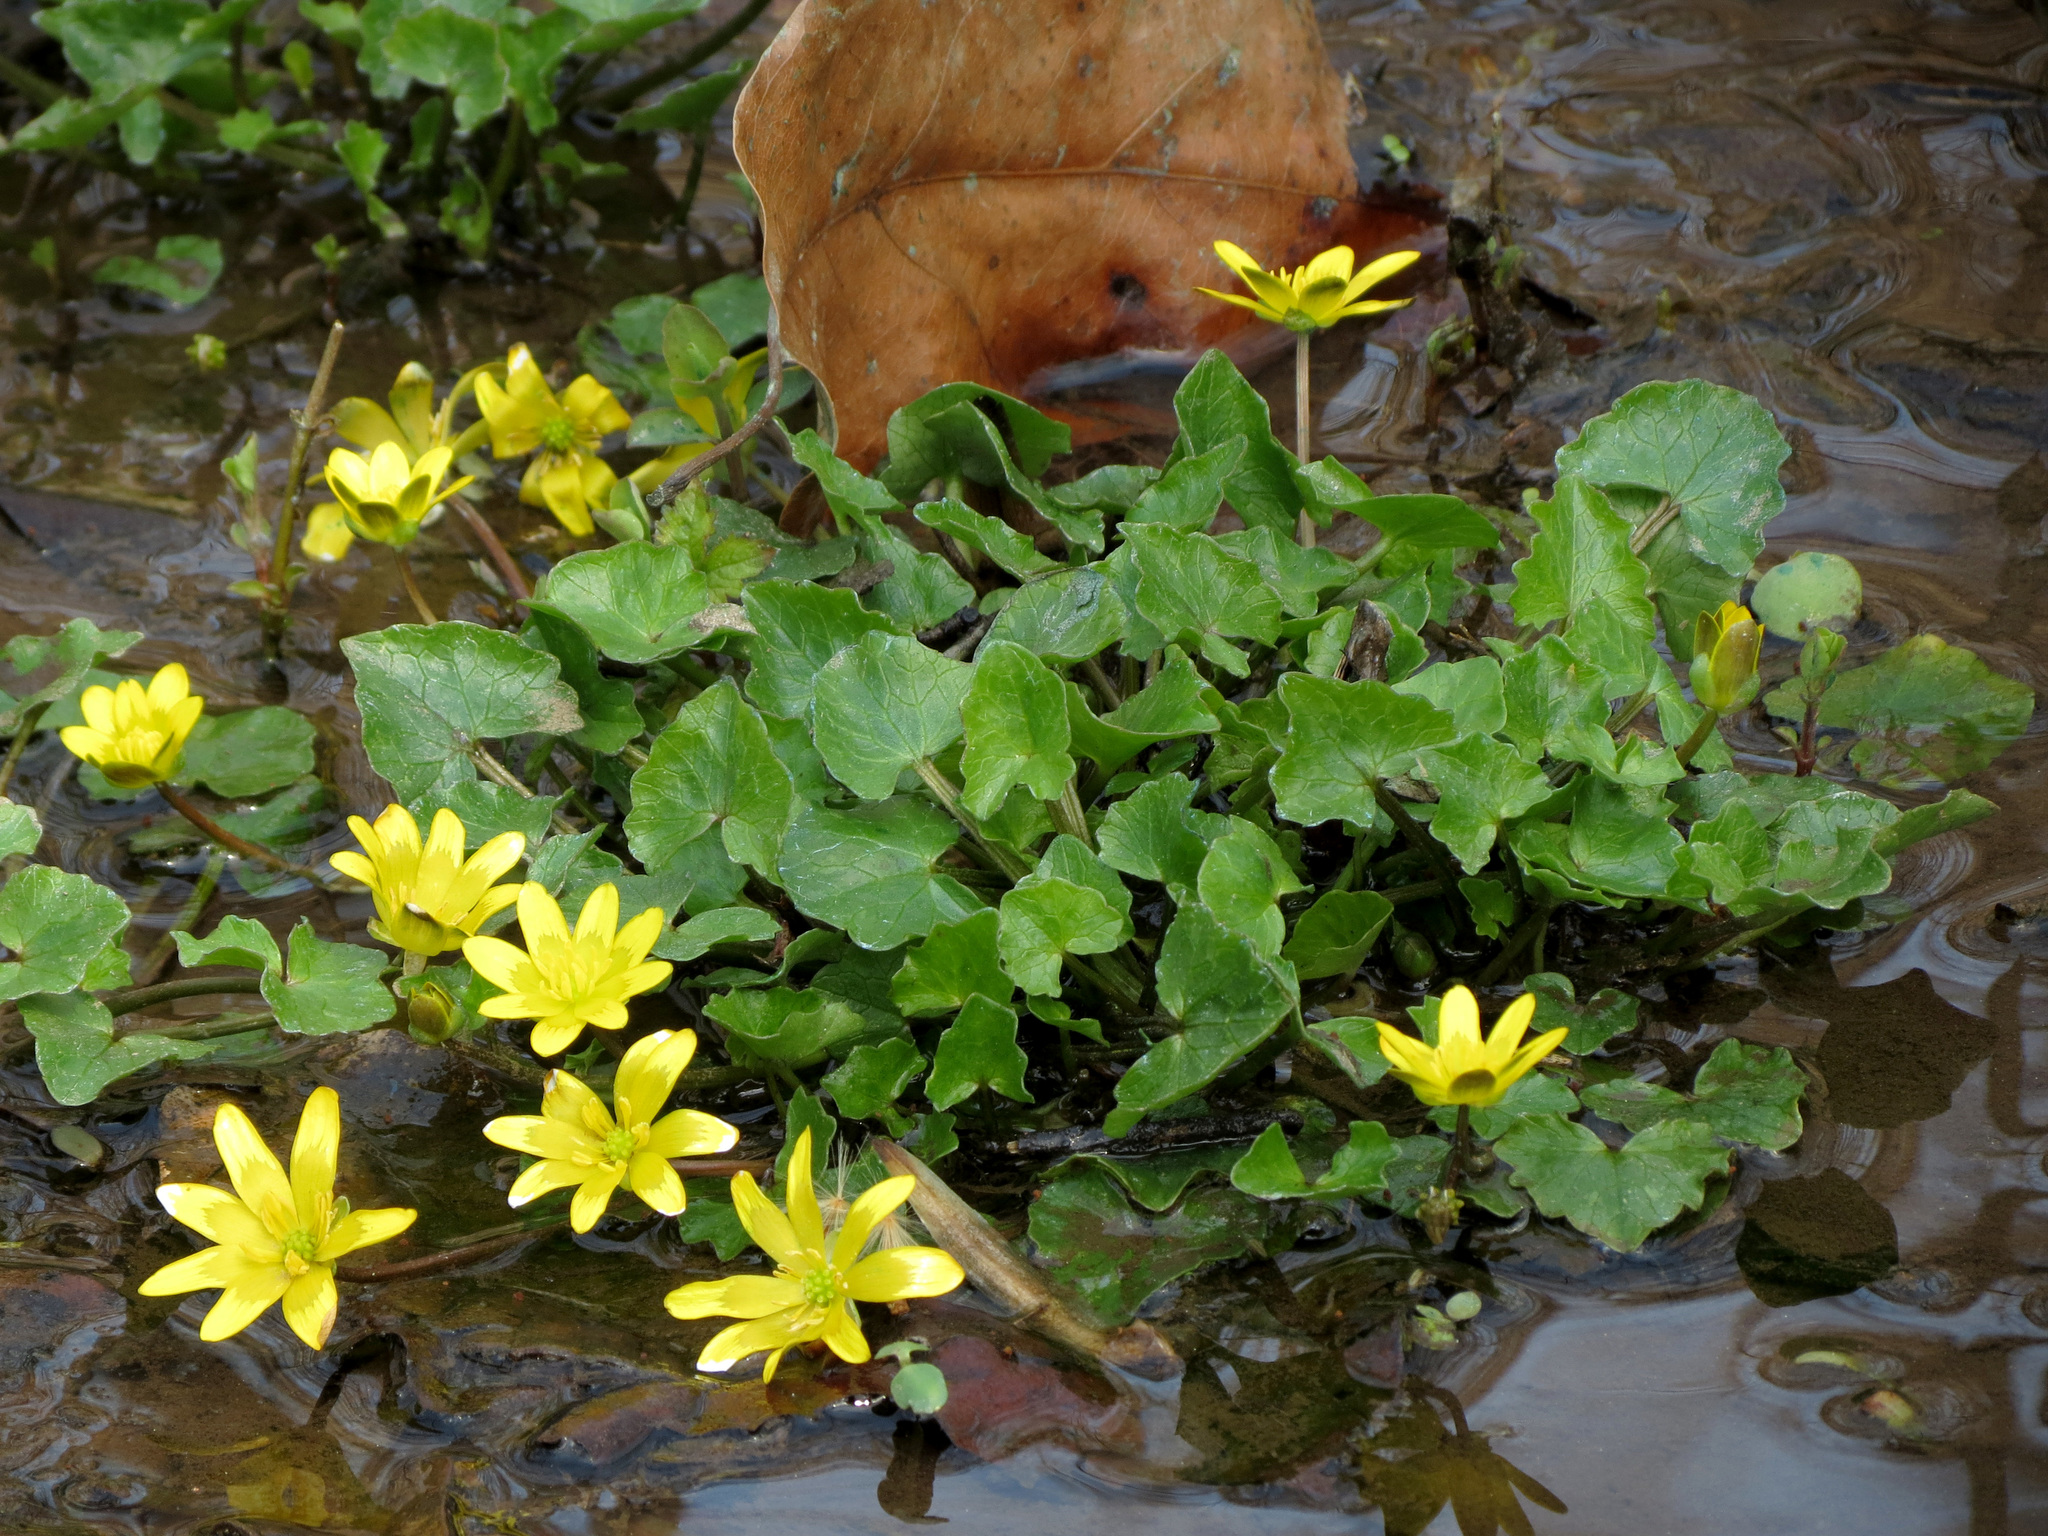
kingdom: Plantae
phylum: Tracheophyta
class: Magnoliopsida
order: Ranunculales
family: Ranunculaceae
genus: Ficaria
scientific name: Ficaria verna
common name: Lesser celandine
